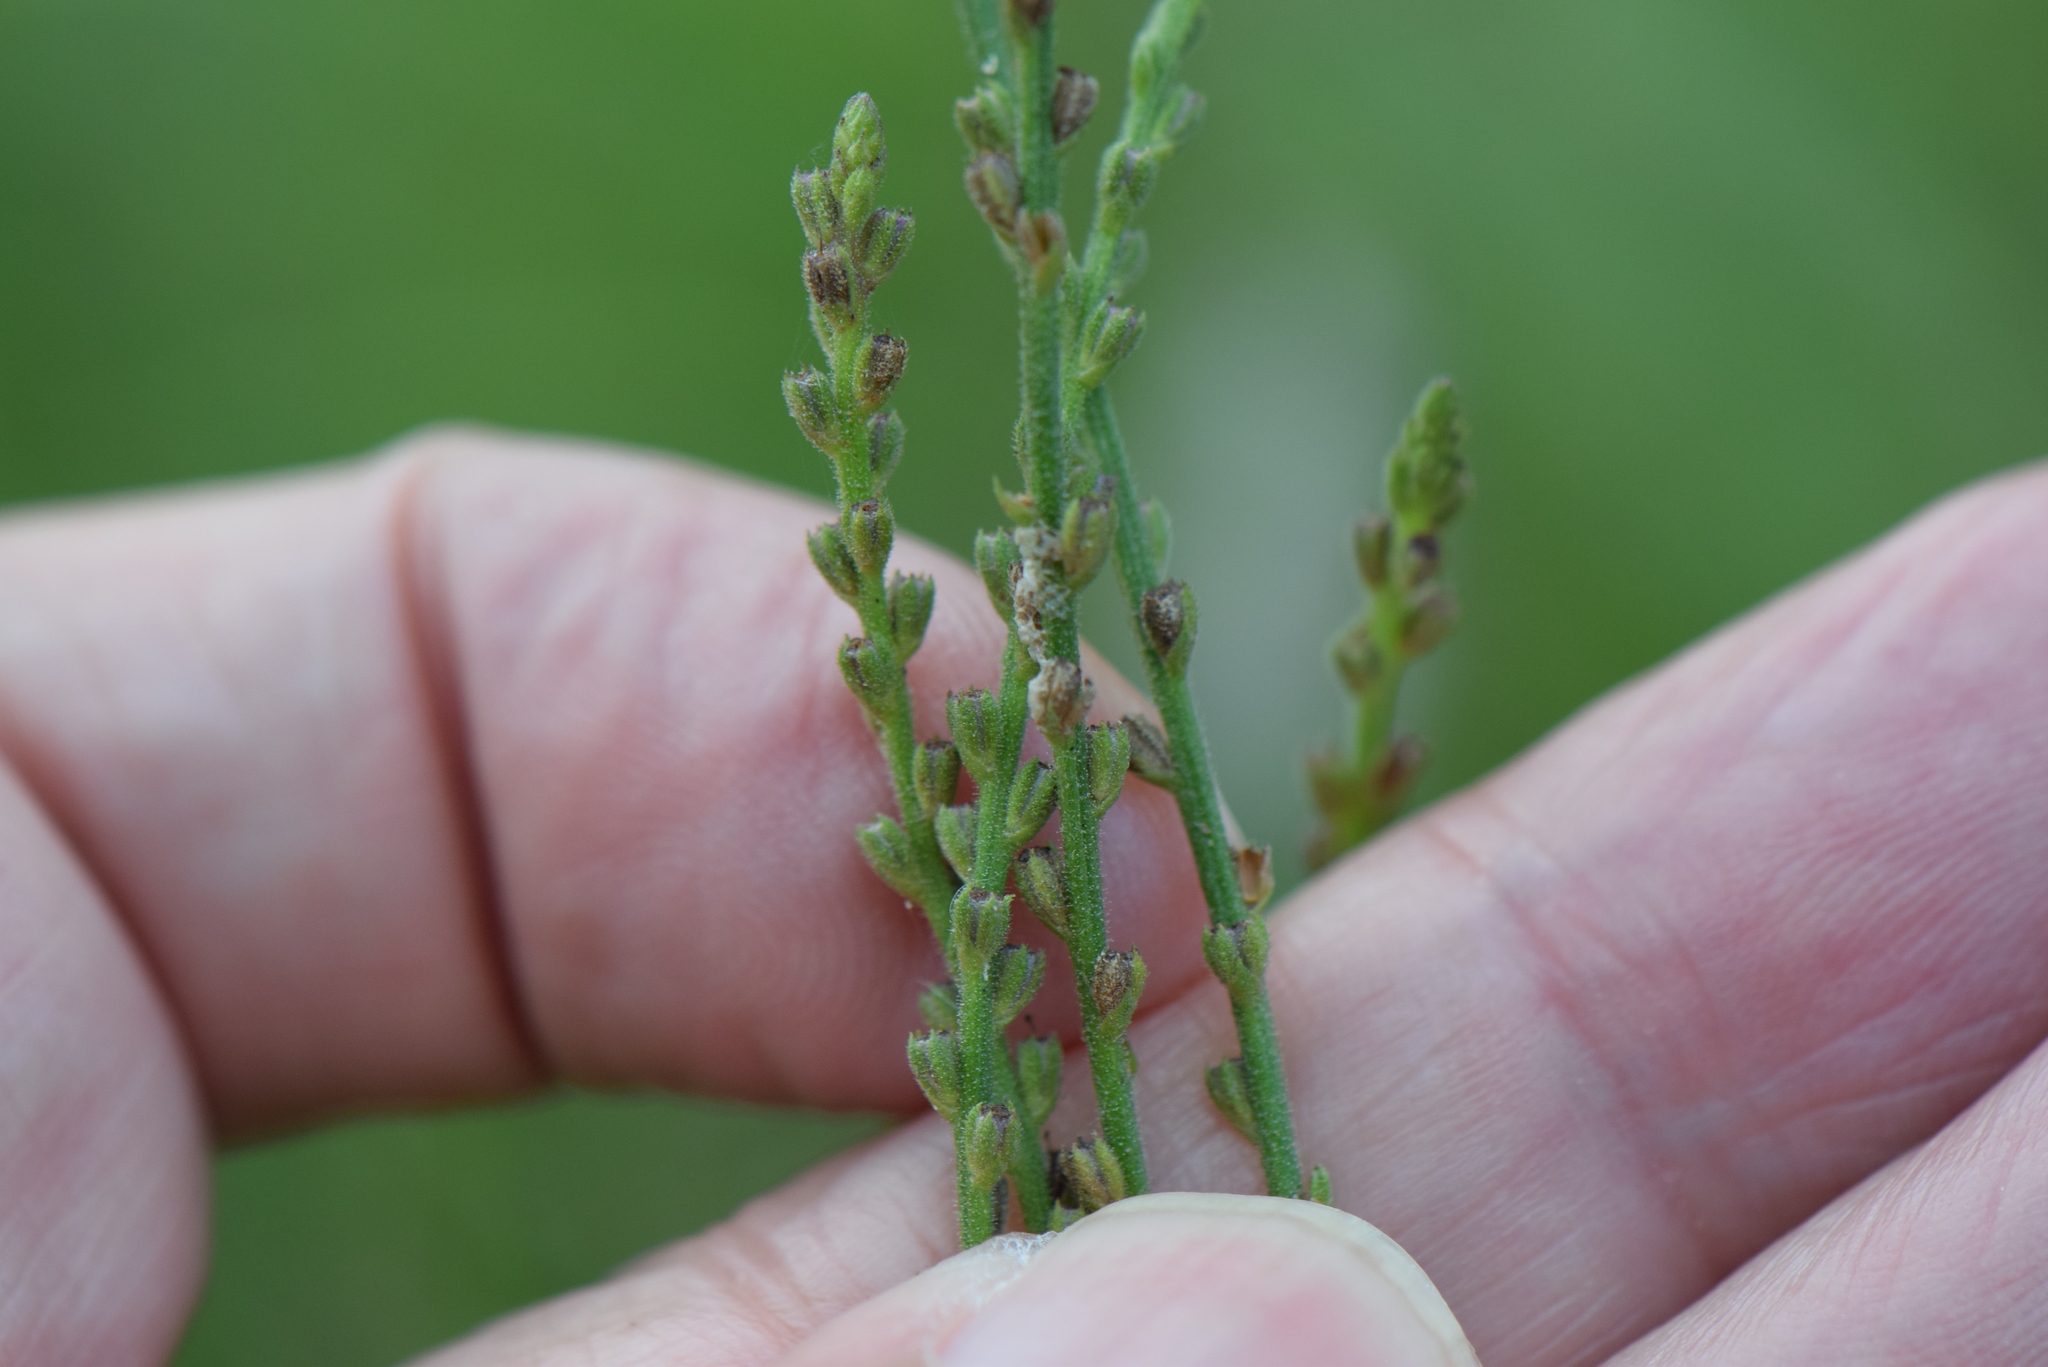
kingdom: Plantae
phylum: Tracheophyta
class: Magnoliopsida
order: Lamiales
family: Verbenaceae
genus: Verbena
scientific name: Verbena officinalis
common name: Vervain
